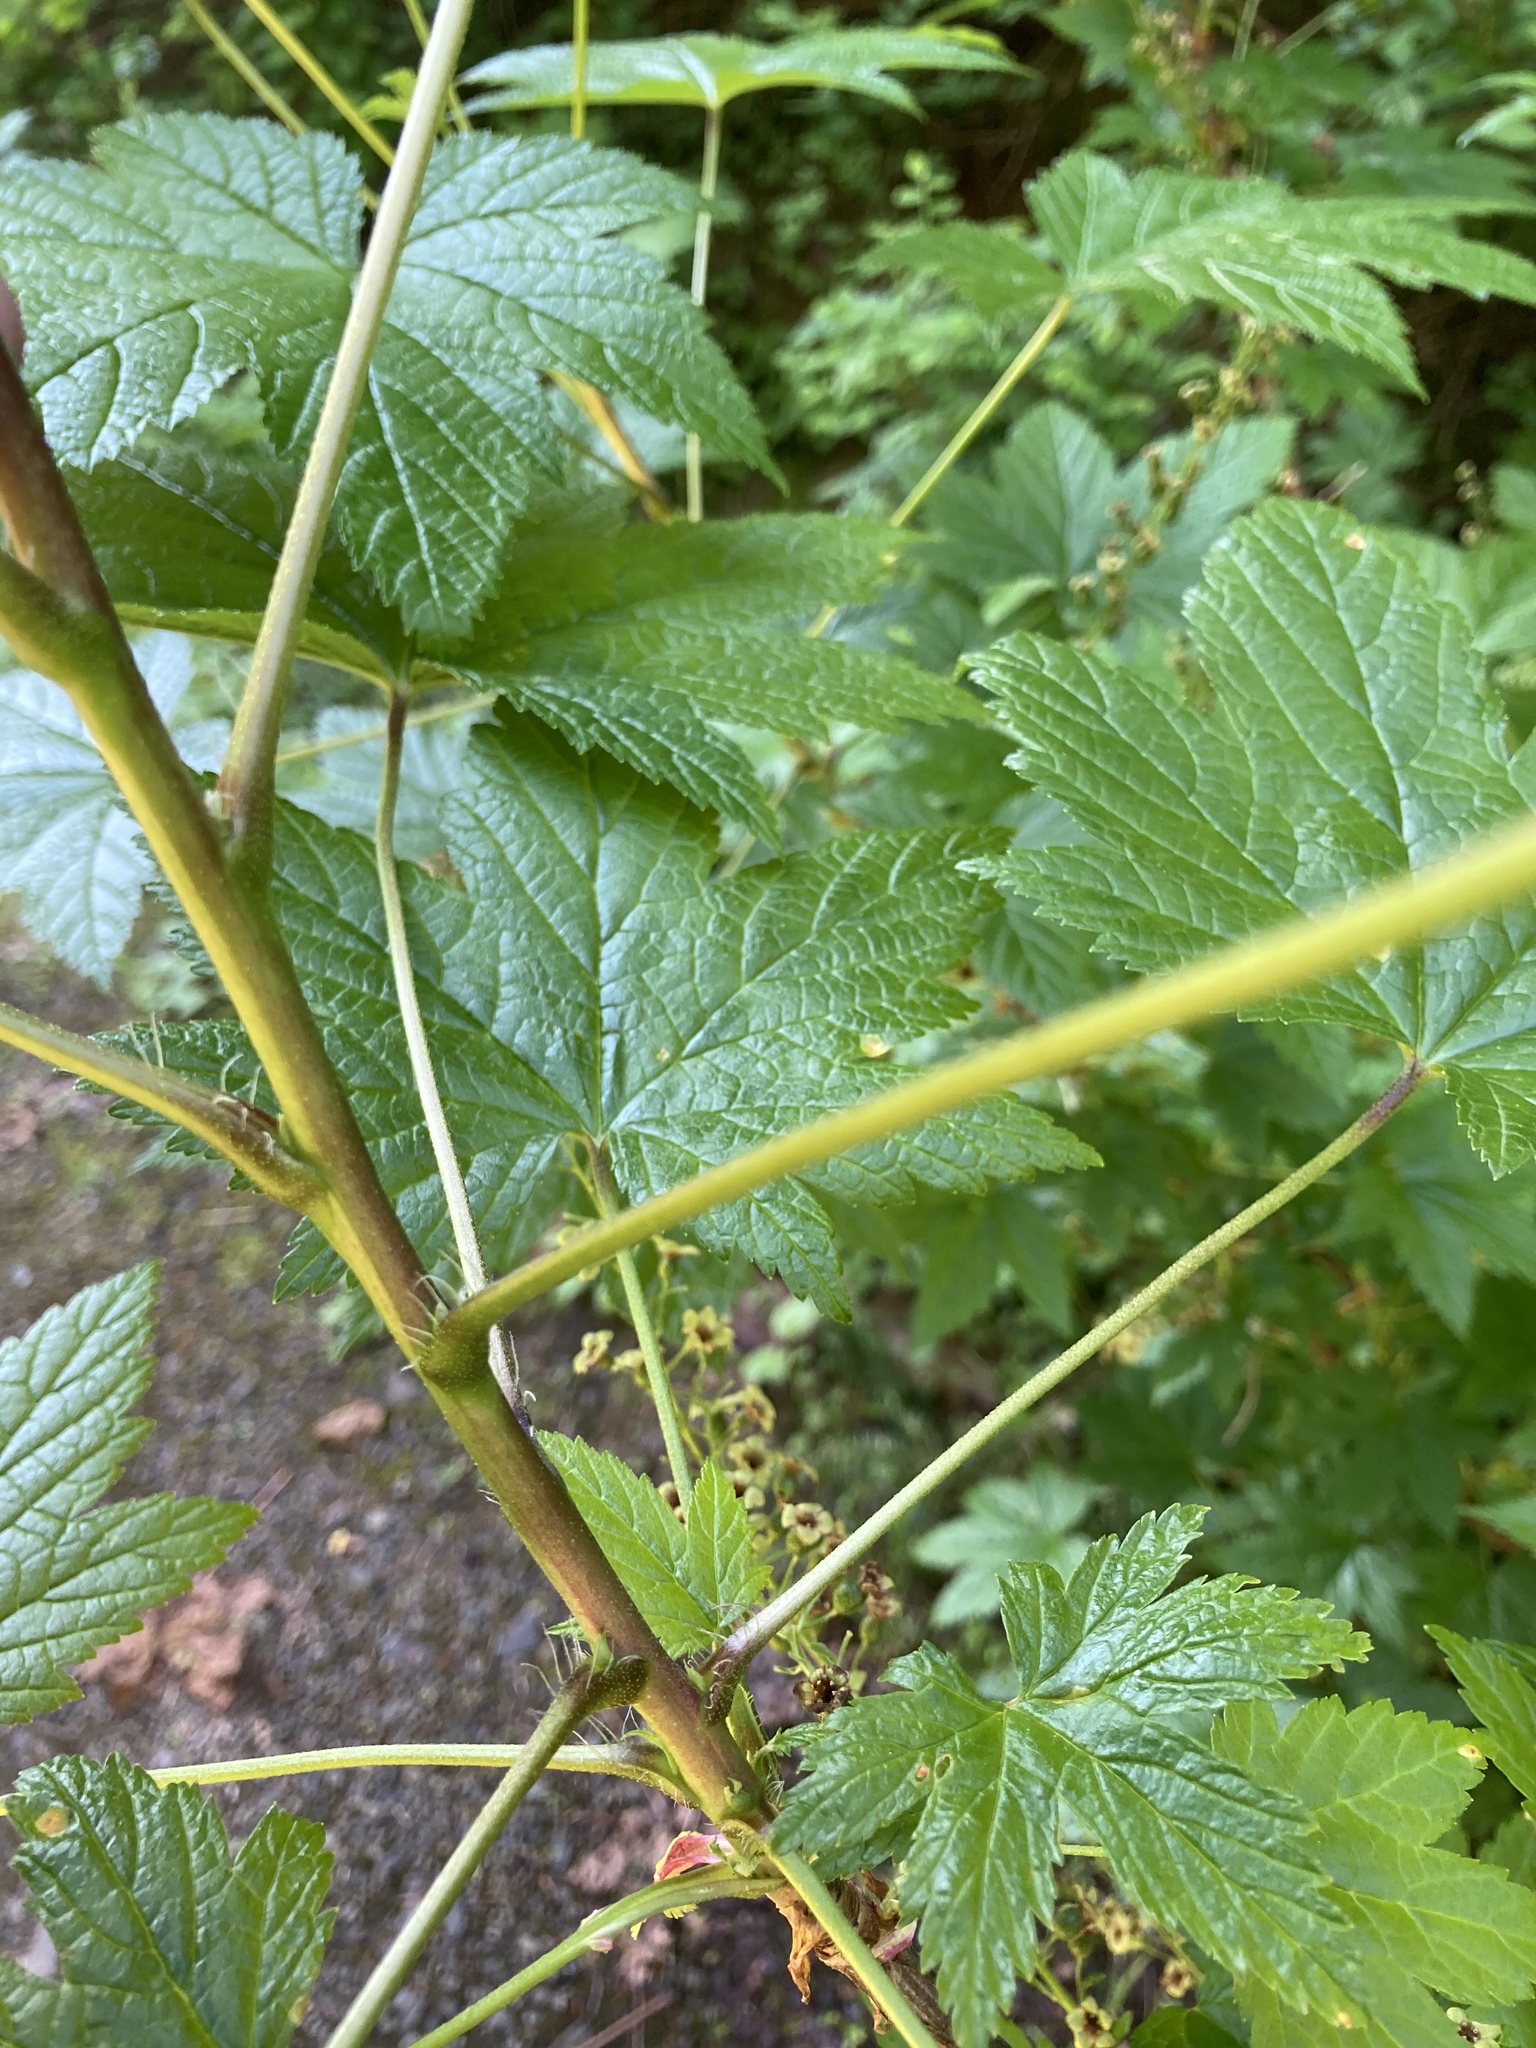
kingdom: Plantae
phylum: Tracheophyta
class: Magnoliopsida
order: Saxifragales
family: Grossulariaceae
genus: Ribes
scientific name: Ribes bracteosum
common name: California black currant
